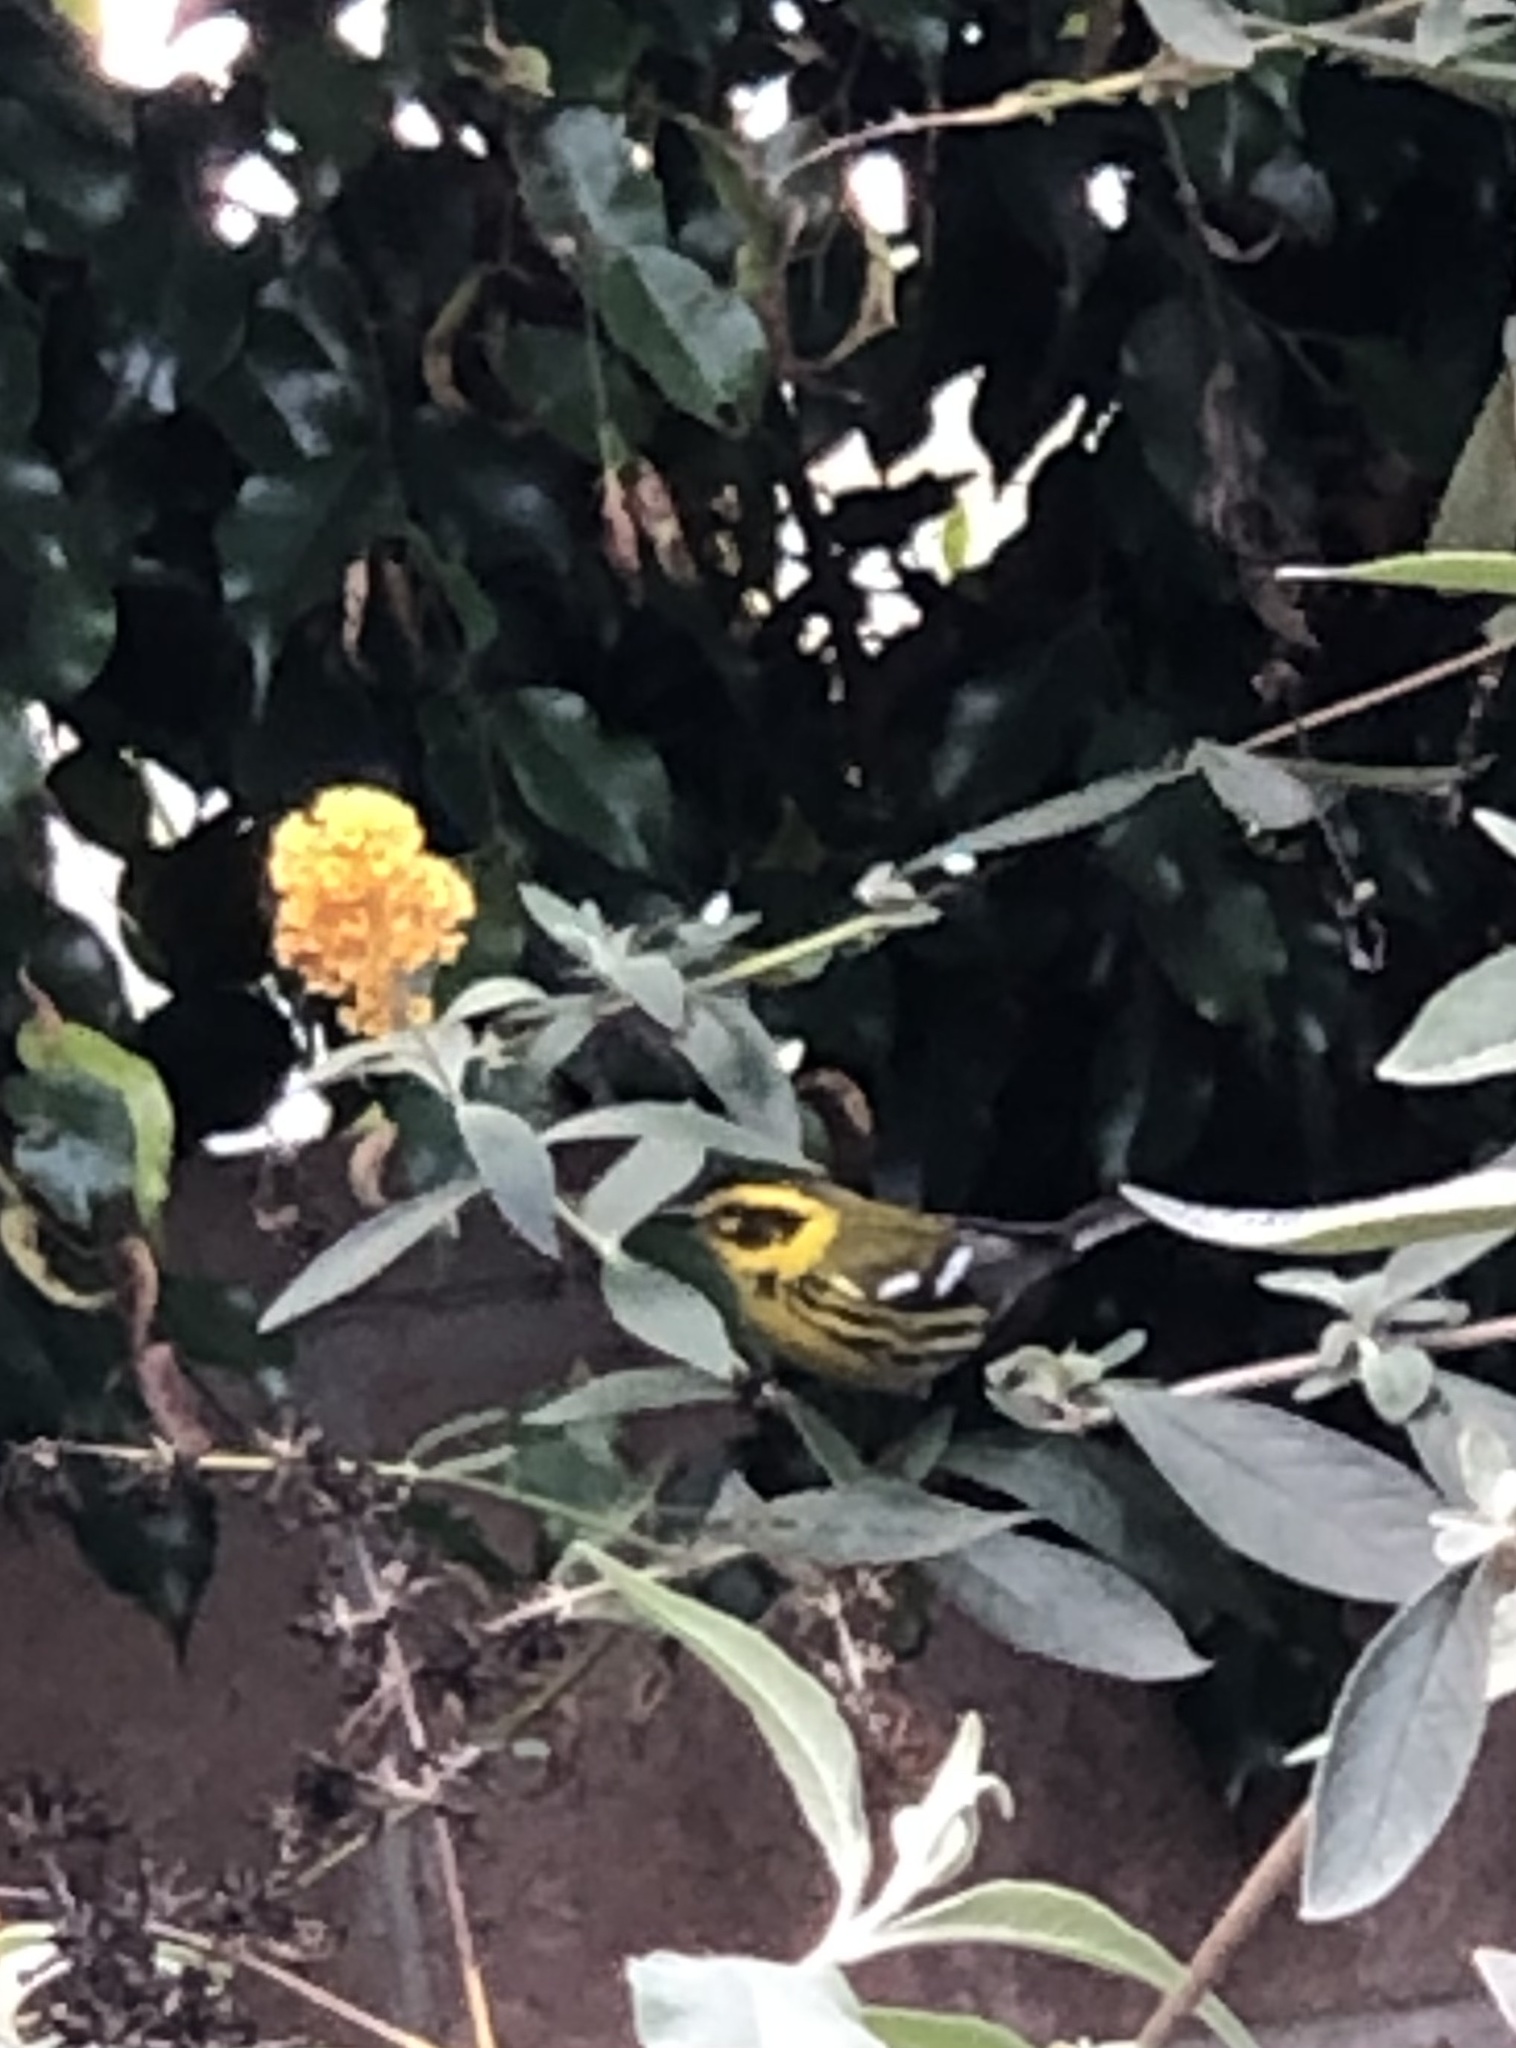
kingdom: Animalia
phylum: Chordata
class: Aves
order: Passeriformes
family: Parulidae
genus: Setophaga
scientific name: Setophaga townsendi
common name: Townsend's warbler
